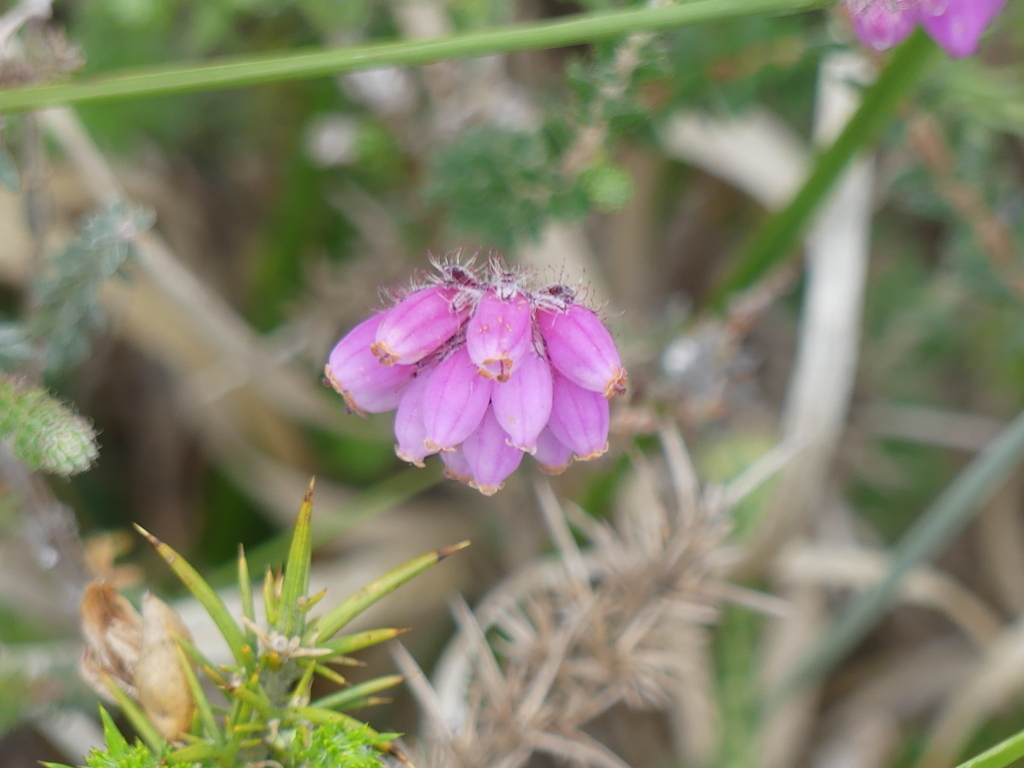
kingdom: Plantae
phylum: Tracheophyta
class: Magnoliopsida
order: Ericales
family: Ericaceae
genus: Erica
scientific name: Erica tetralix
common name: Cross-leaved heath
